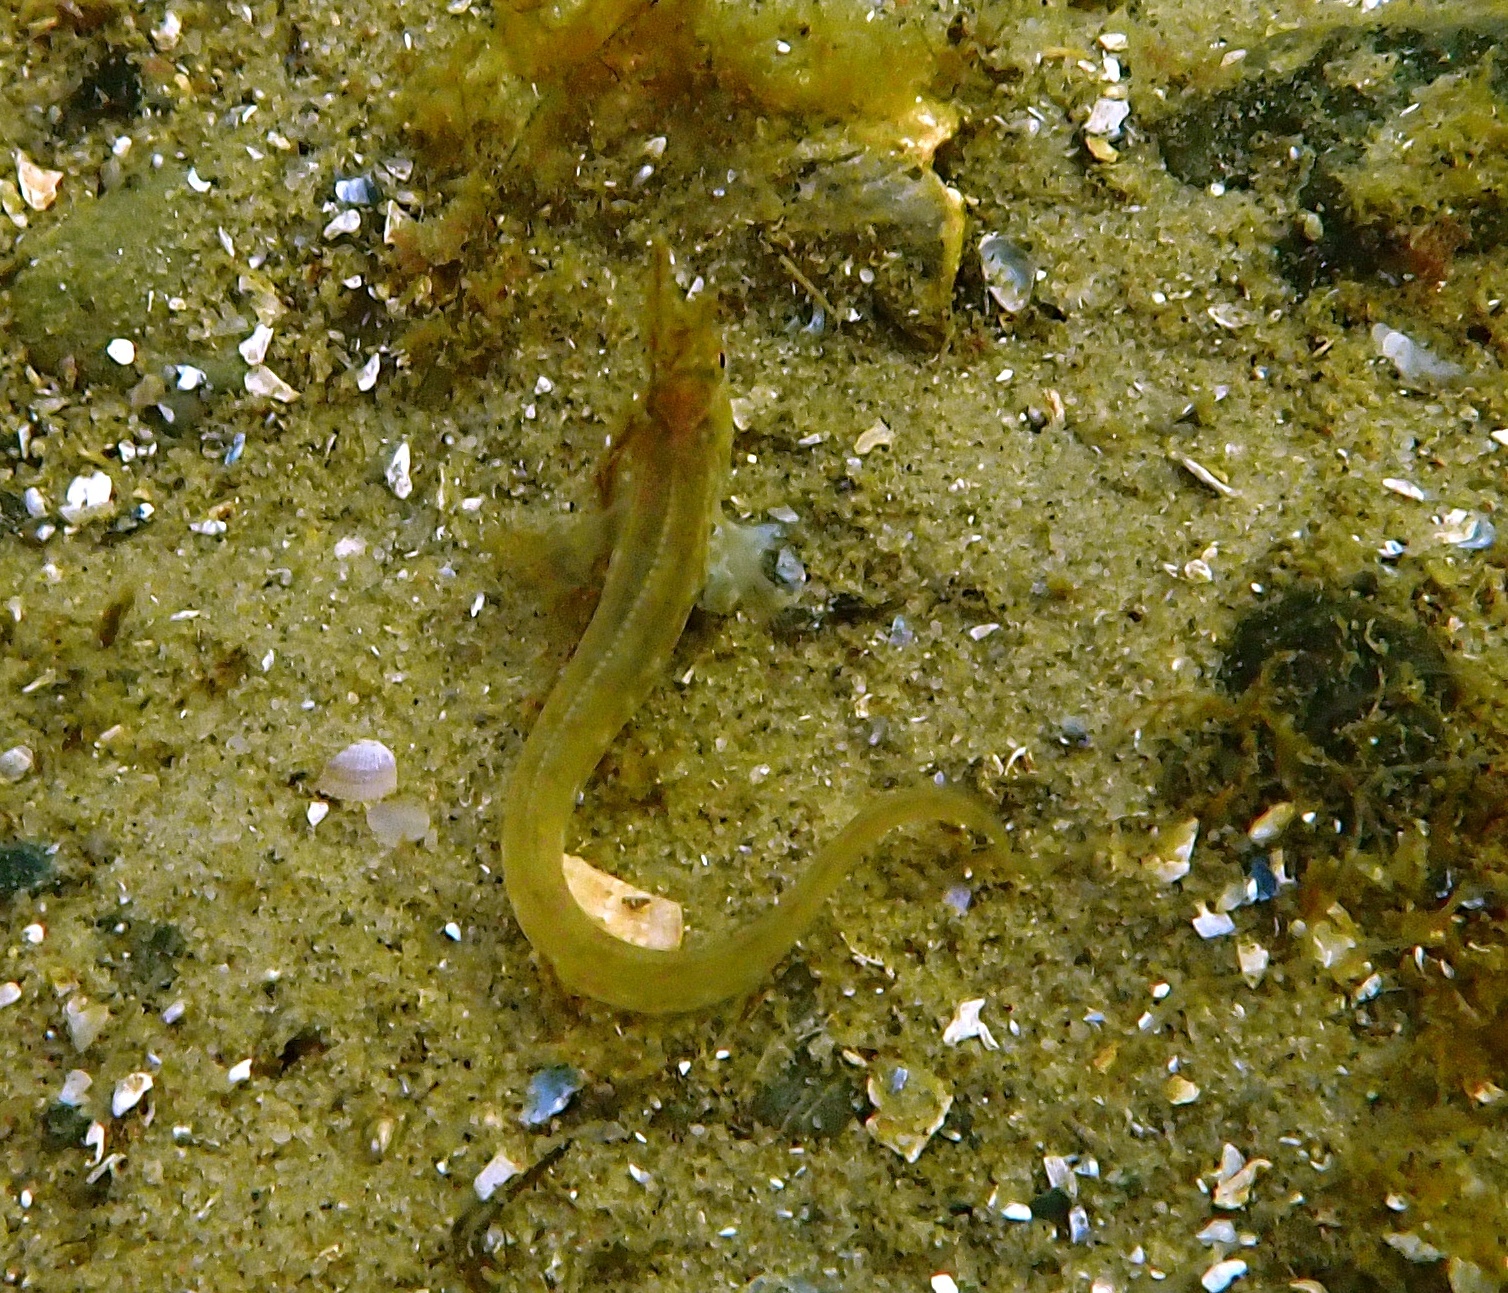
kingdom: Animalia
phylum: Chordata
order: Perciformes
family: Zoarcidae
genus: Zoarces
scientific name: Zoarces viviparus
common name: Viviparous blenny
